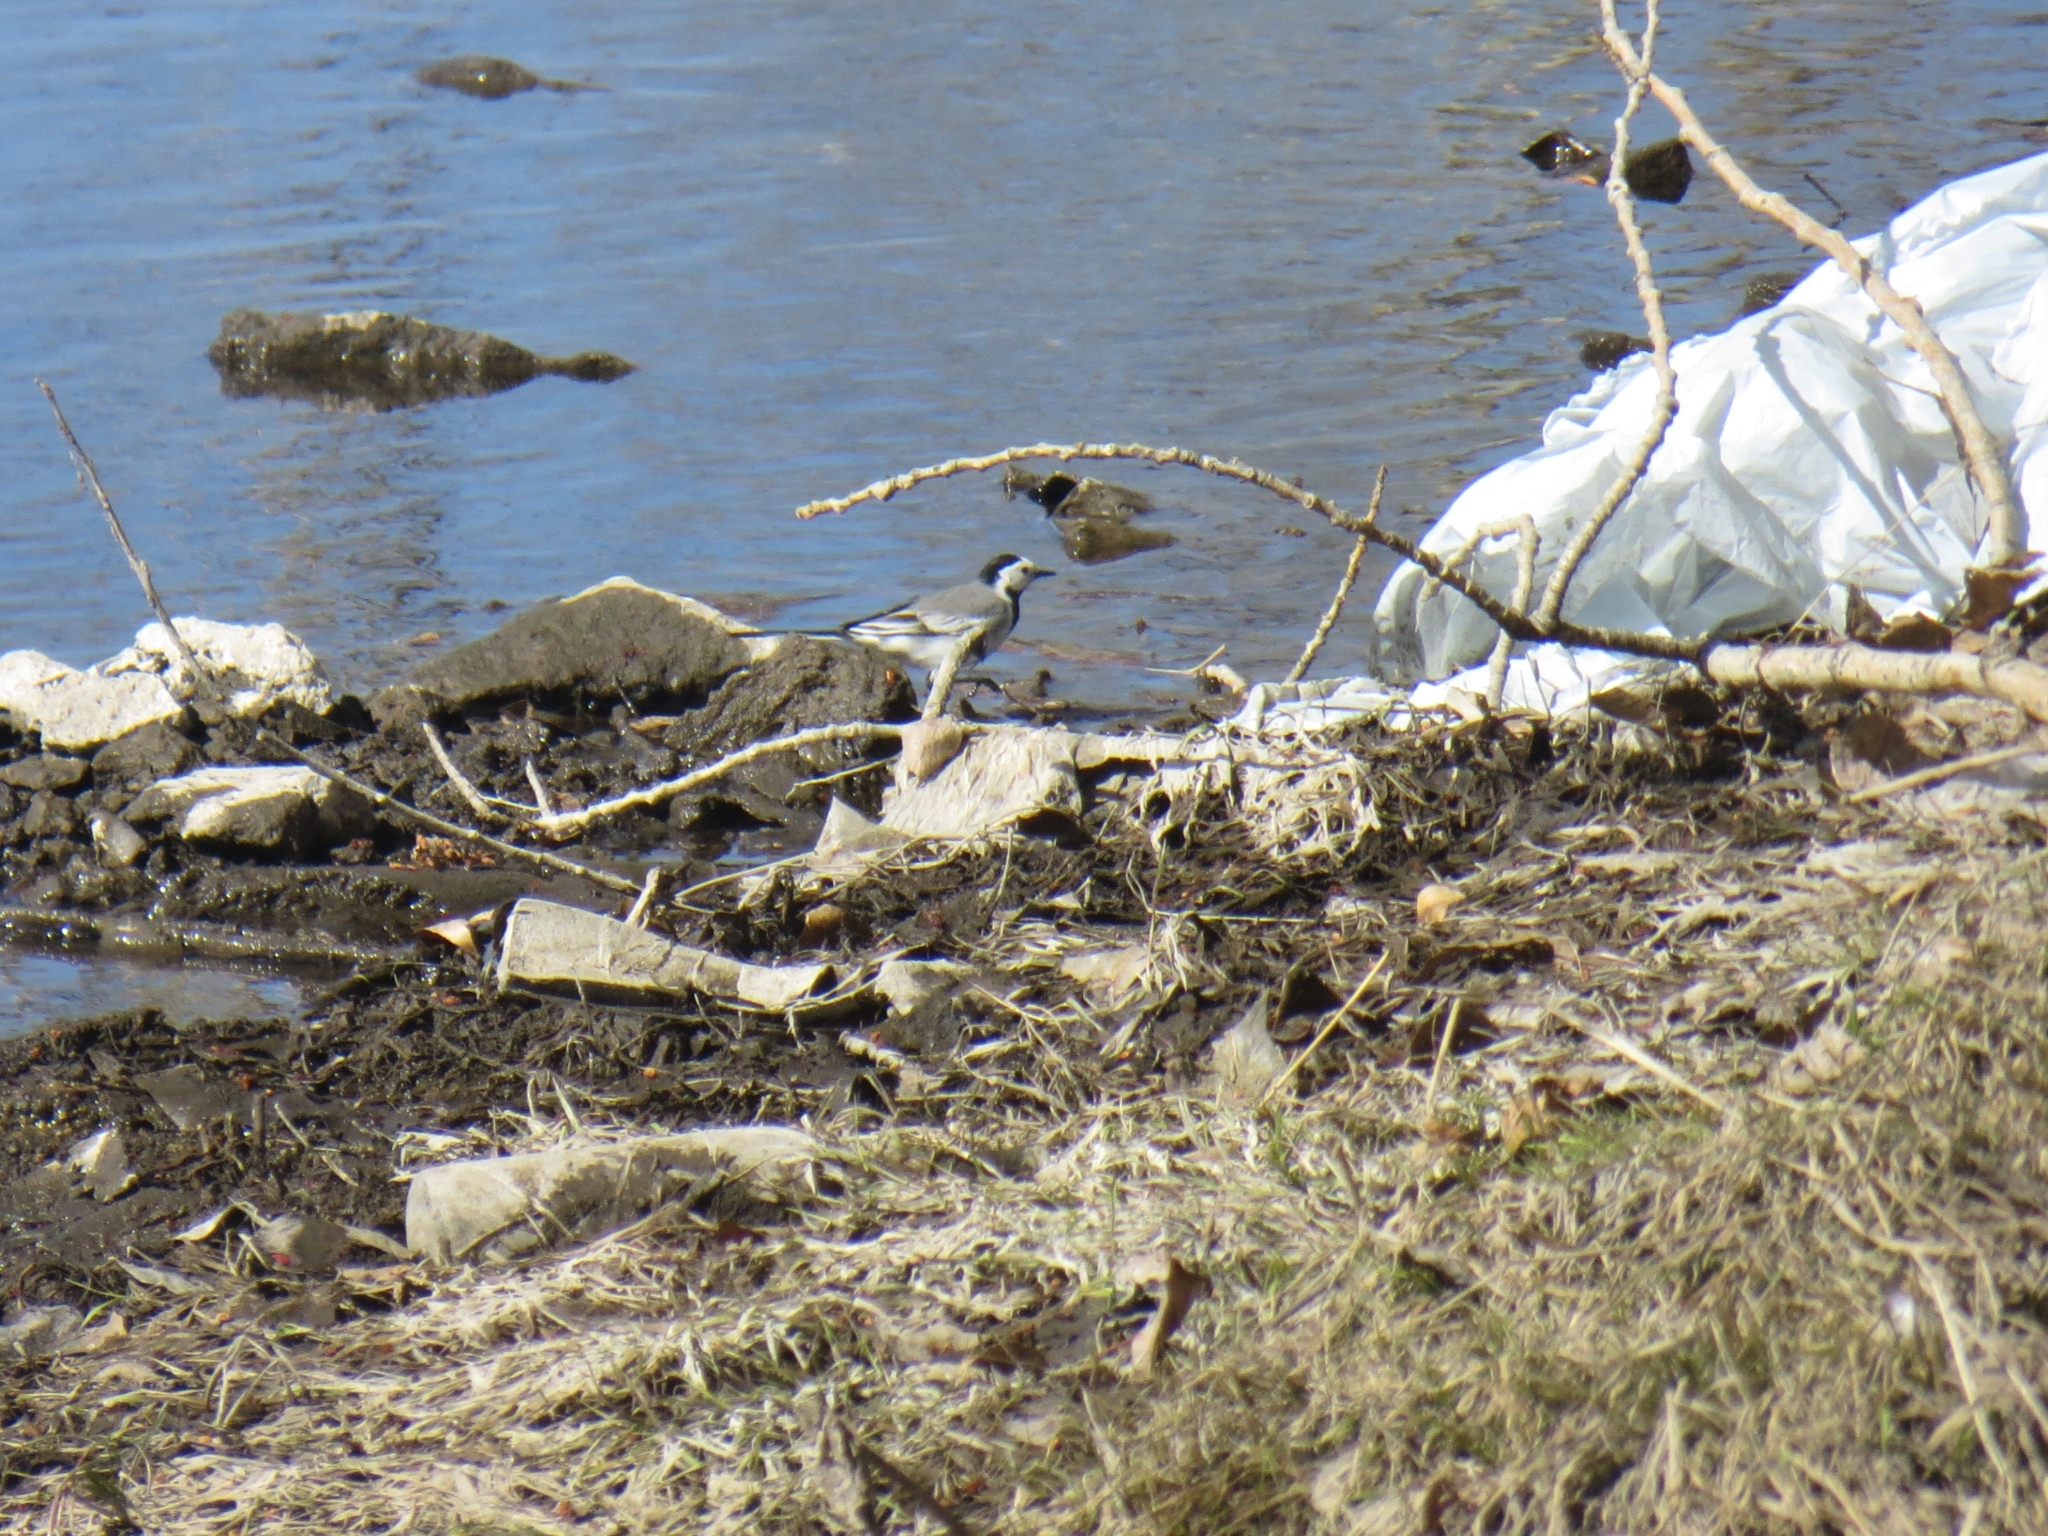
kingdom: Animalia
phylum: Chordata
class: Aves
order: Passeriformes
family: Motacillidae
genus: Motacilla
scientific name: Motacilla alba
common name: White wagtail
